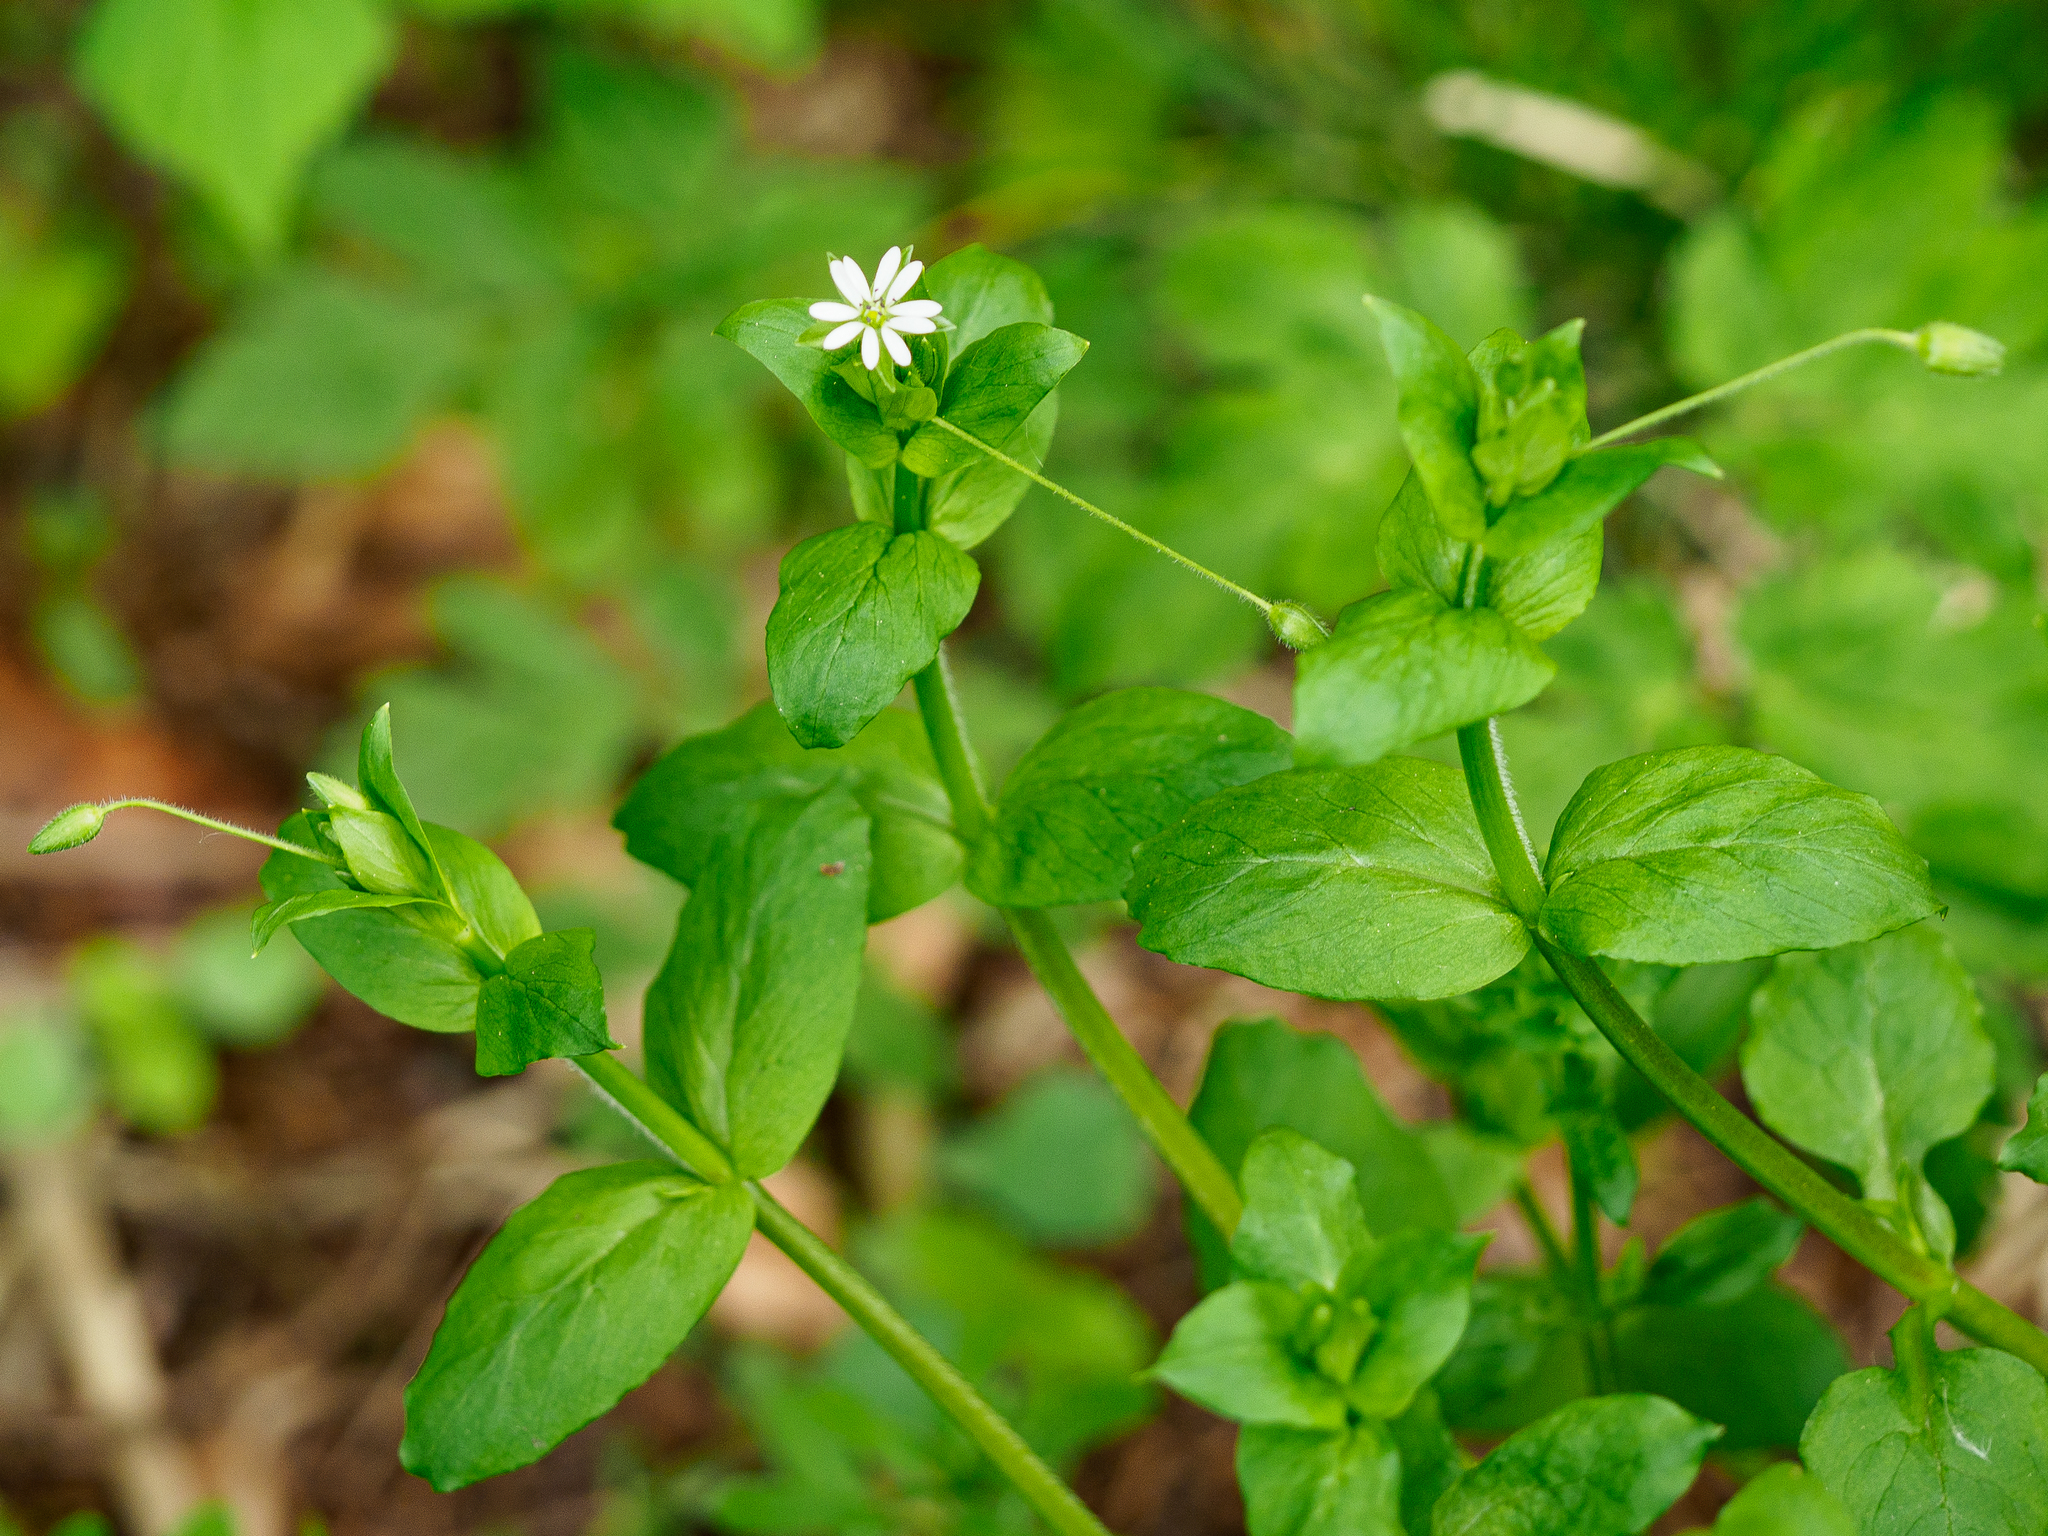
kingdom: Plantae
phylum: Tracheophyta
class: Magnoliopsida
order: Caryophyllales
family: Caryophyllaceae
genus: Stellaria
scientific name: Stellaria media
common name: Common chickweed
